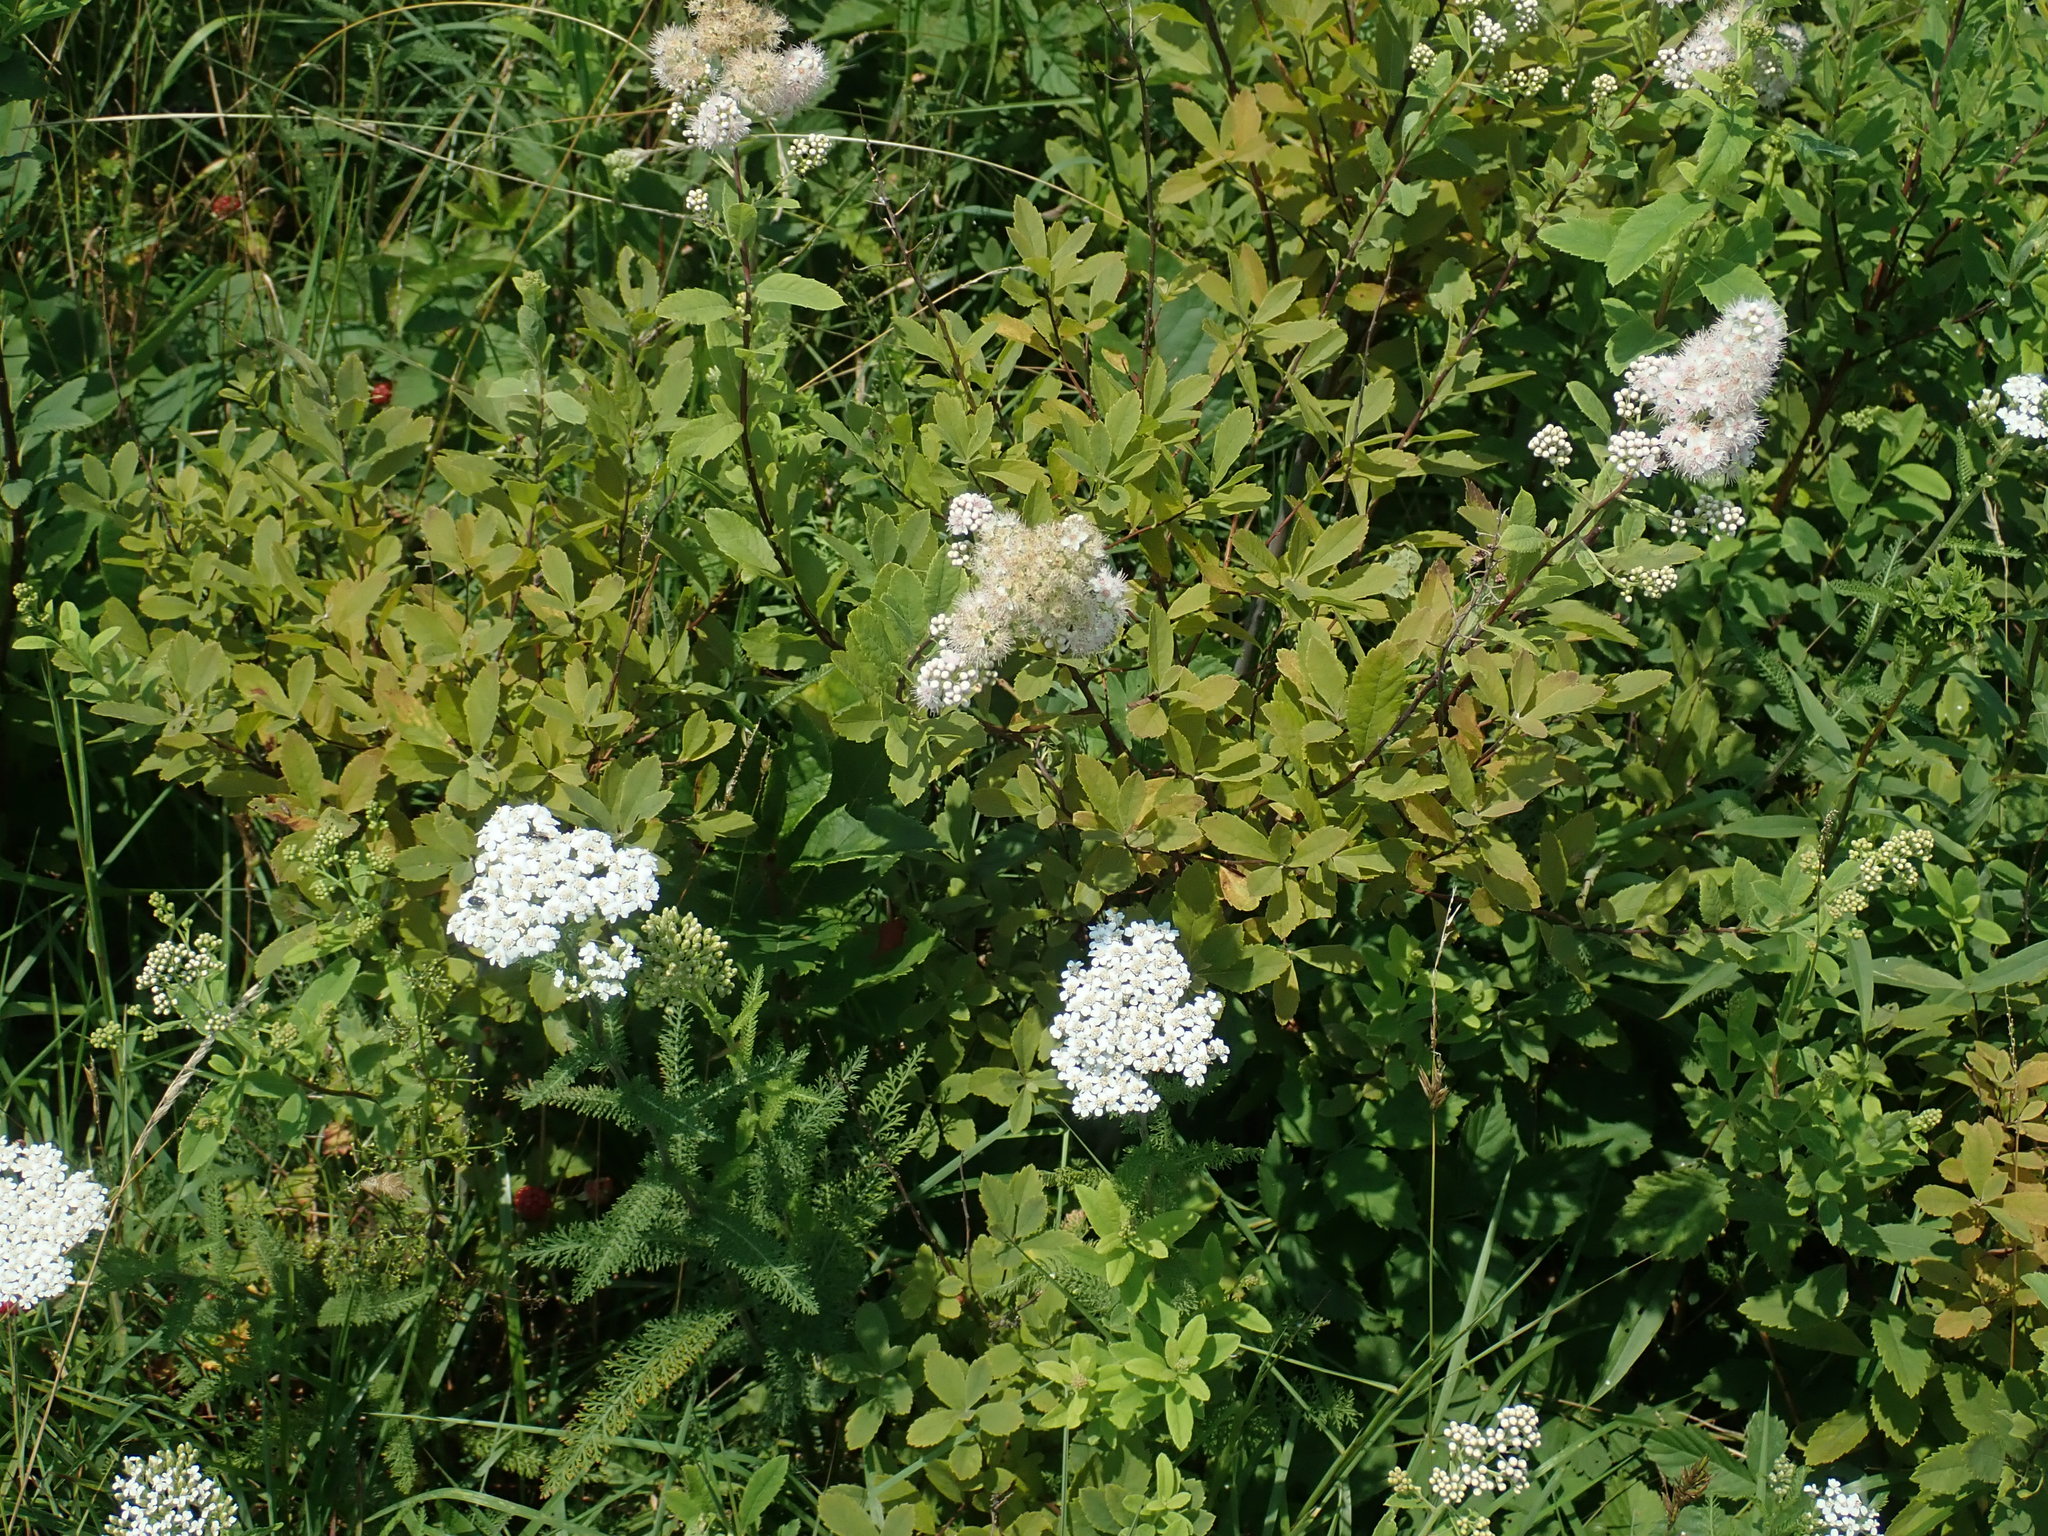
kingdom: Plantae
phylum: Tracheophyta
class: Magnoliopsida
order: Rosales
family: Rosaceae
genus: Spiraea
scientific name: Spiraea alba
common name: Pale bridewort
